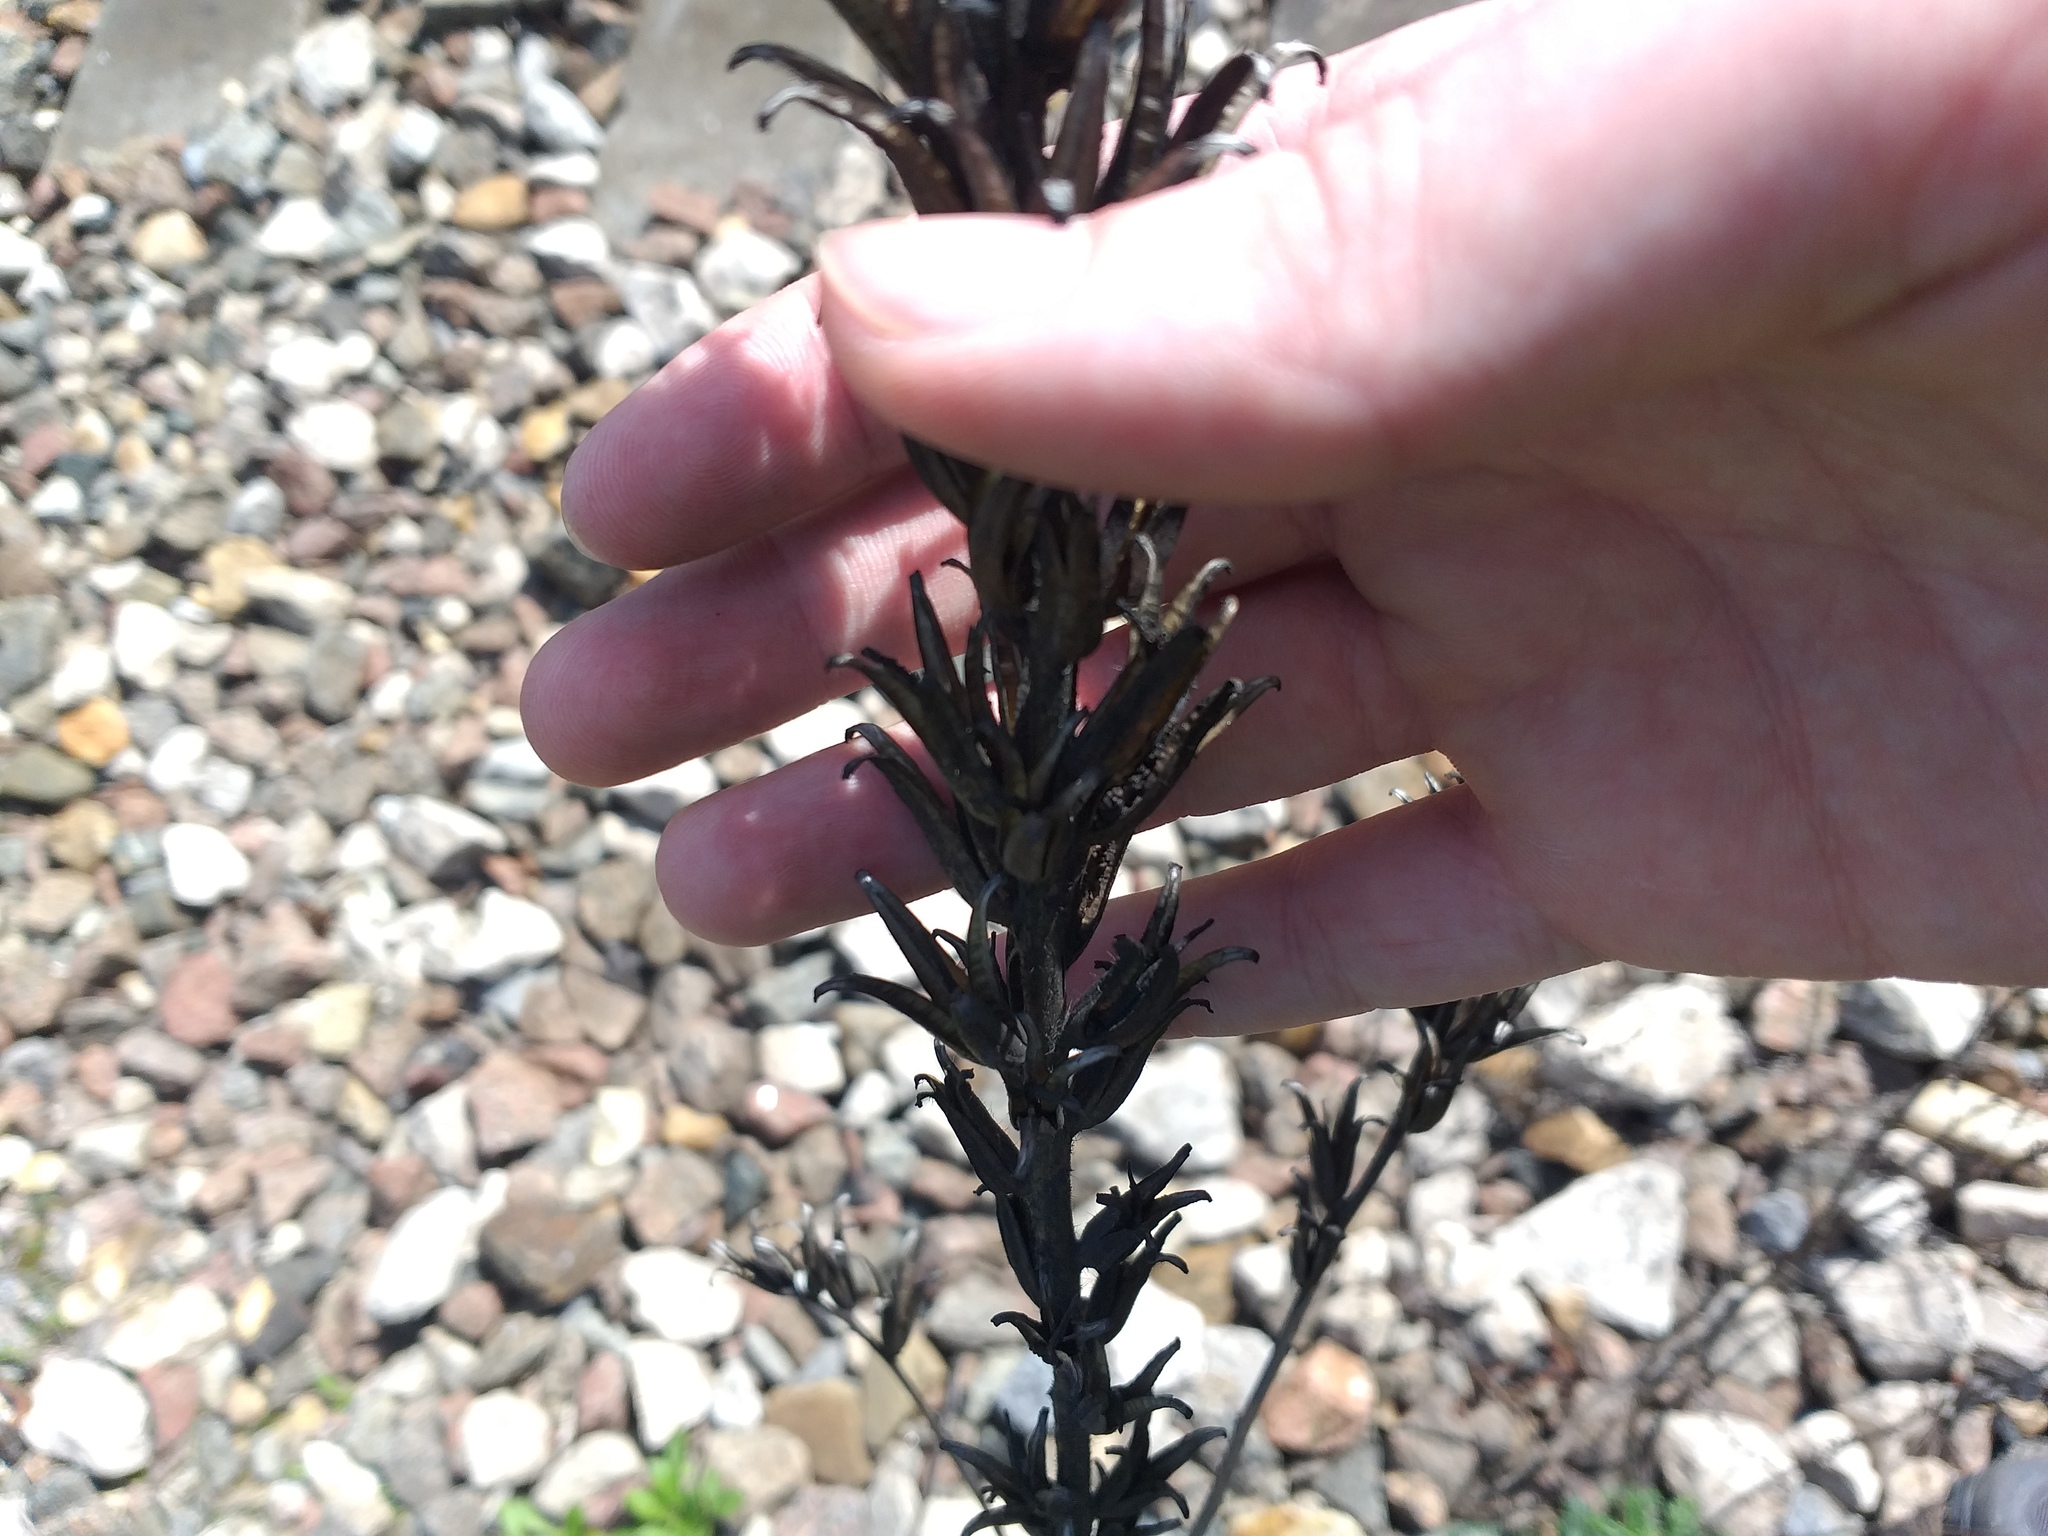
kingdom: Plantae
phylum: Tracheophyta
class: Magnoliopsida
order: Myrtales
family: Onagraceae
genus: Oenothera
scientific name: Oenothera
